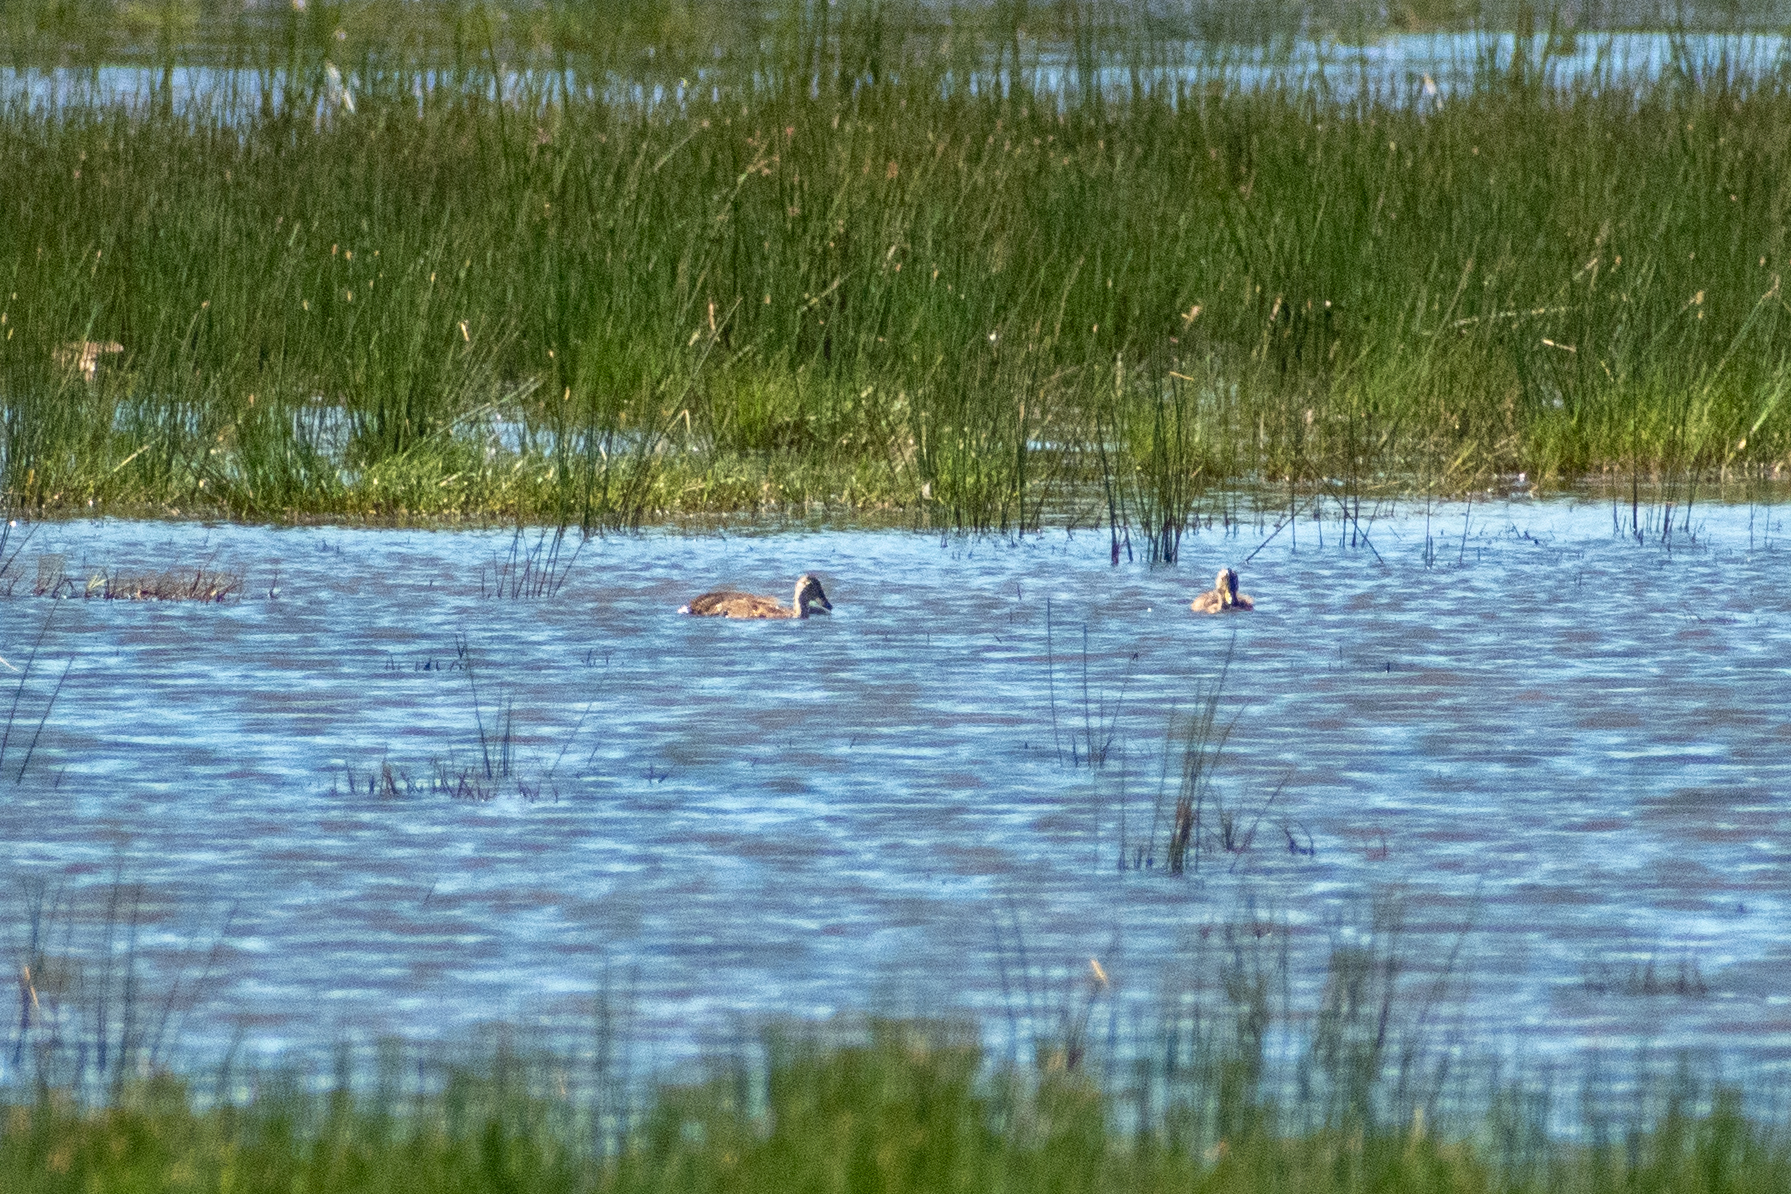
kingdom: Animalia
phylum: Chordata
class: Aves
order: Anseriformes
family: Anatidae
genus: Anas
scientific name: Anas georgica
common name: Yellow-billed pintail
